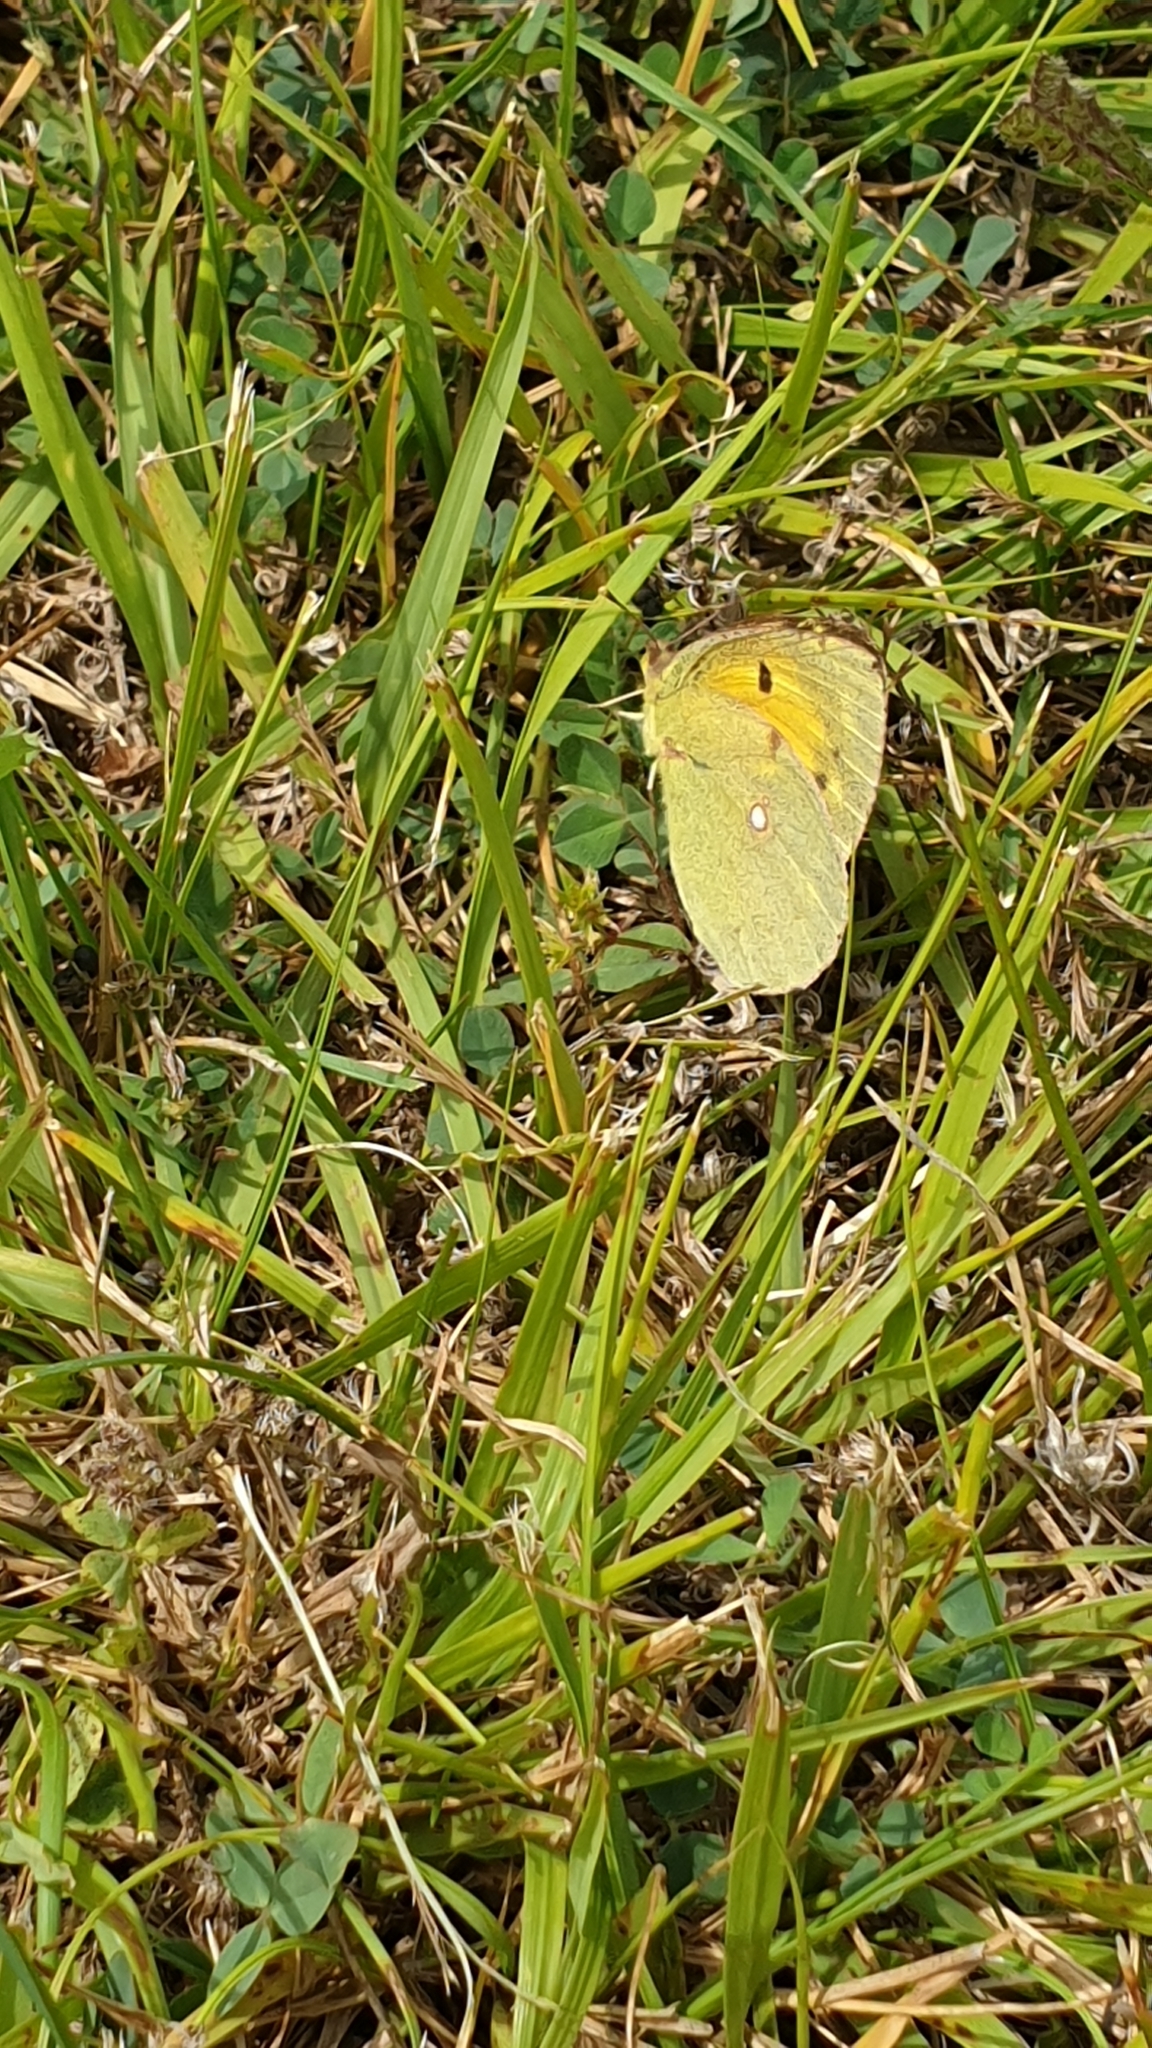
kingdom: Animalia
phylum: Arthropoda
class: Insecta
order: Lepidoptera
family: Pieridae
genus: Colias
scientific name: Colias croceus
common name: Clouded yellow
